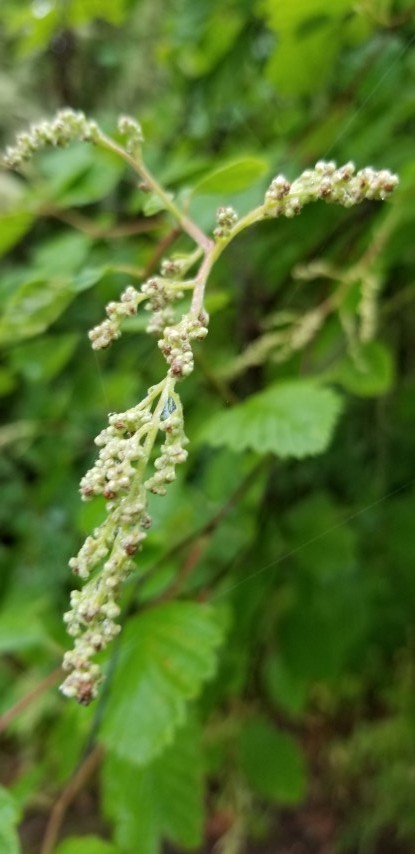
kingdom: Plantae
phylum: Tracheophyta
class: Magnoliopsida
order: Rosales
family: Rosaceae
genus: Holodiscus
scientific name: Holodiscus discolor
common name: Oceanspray
